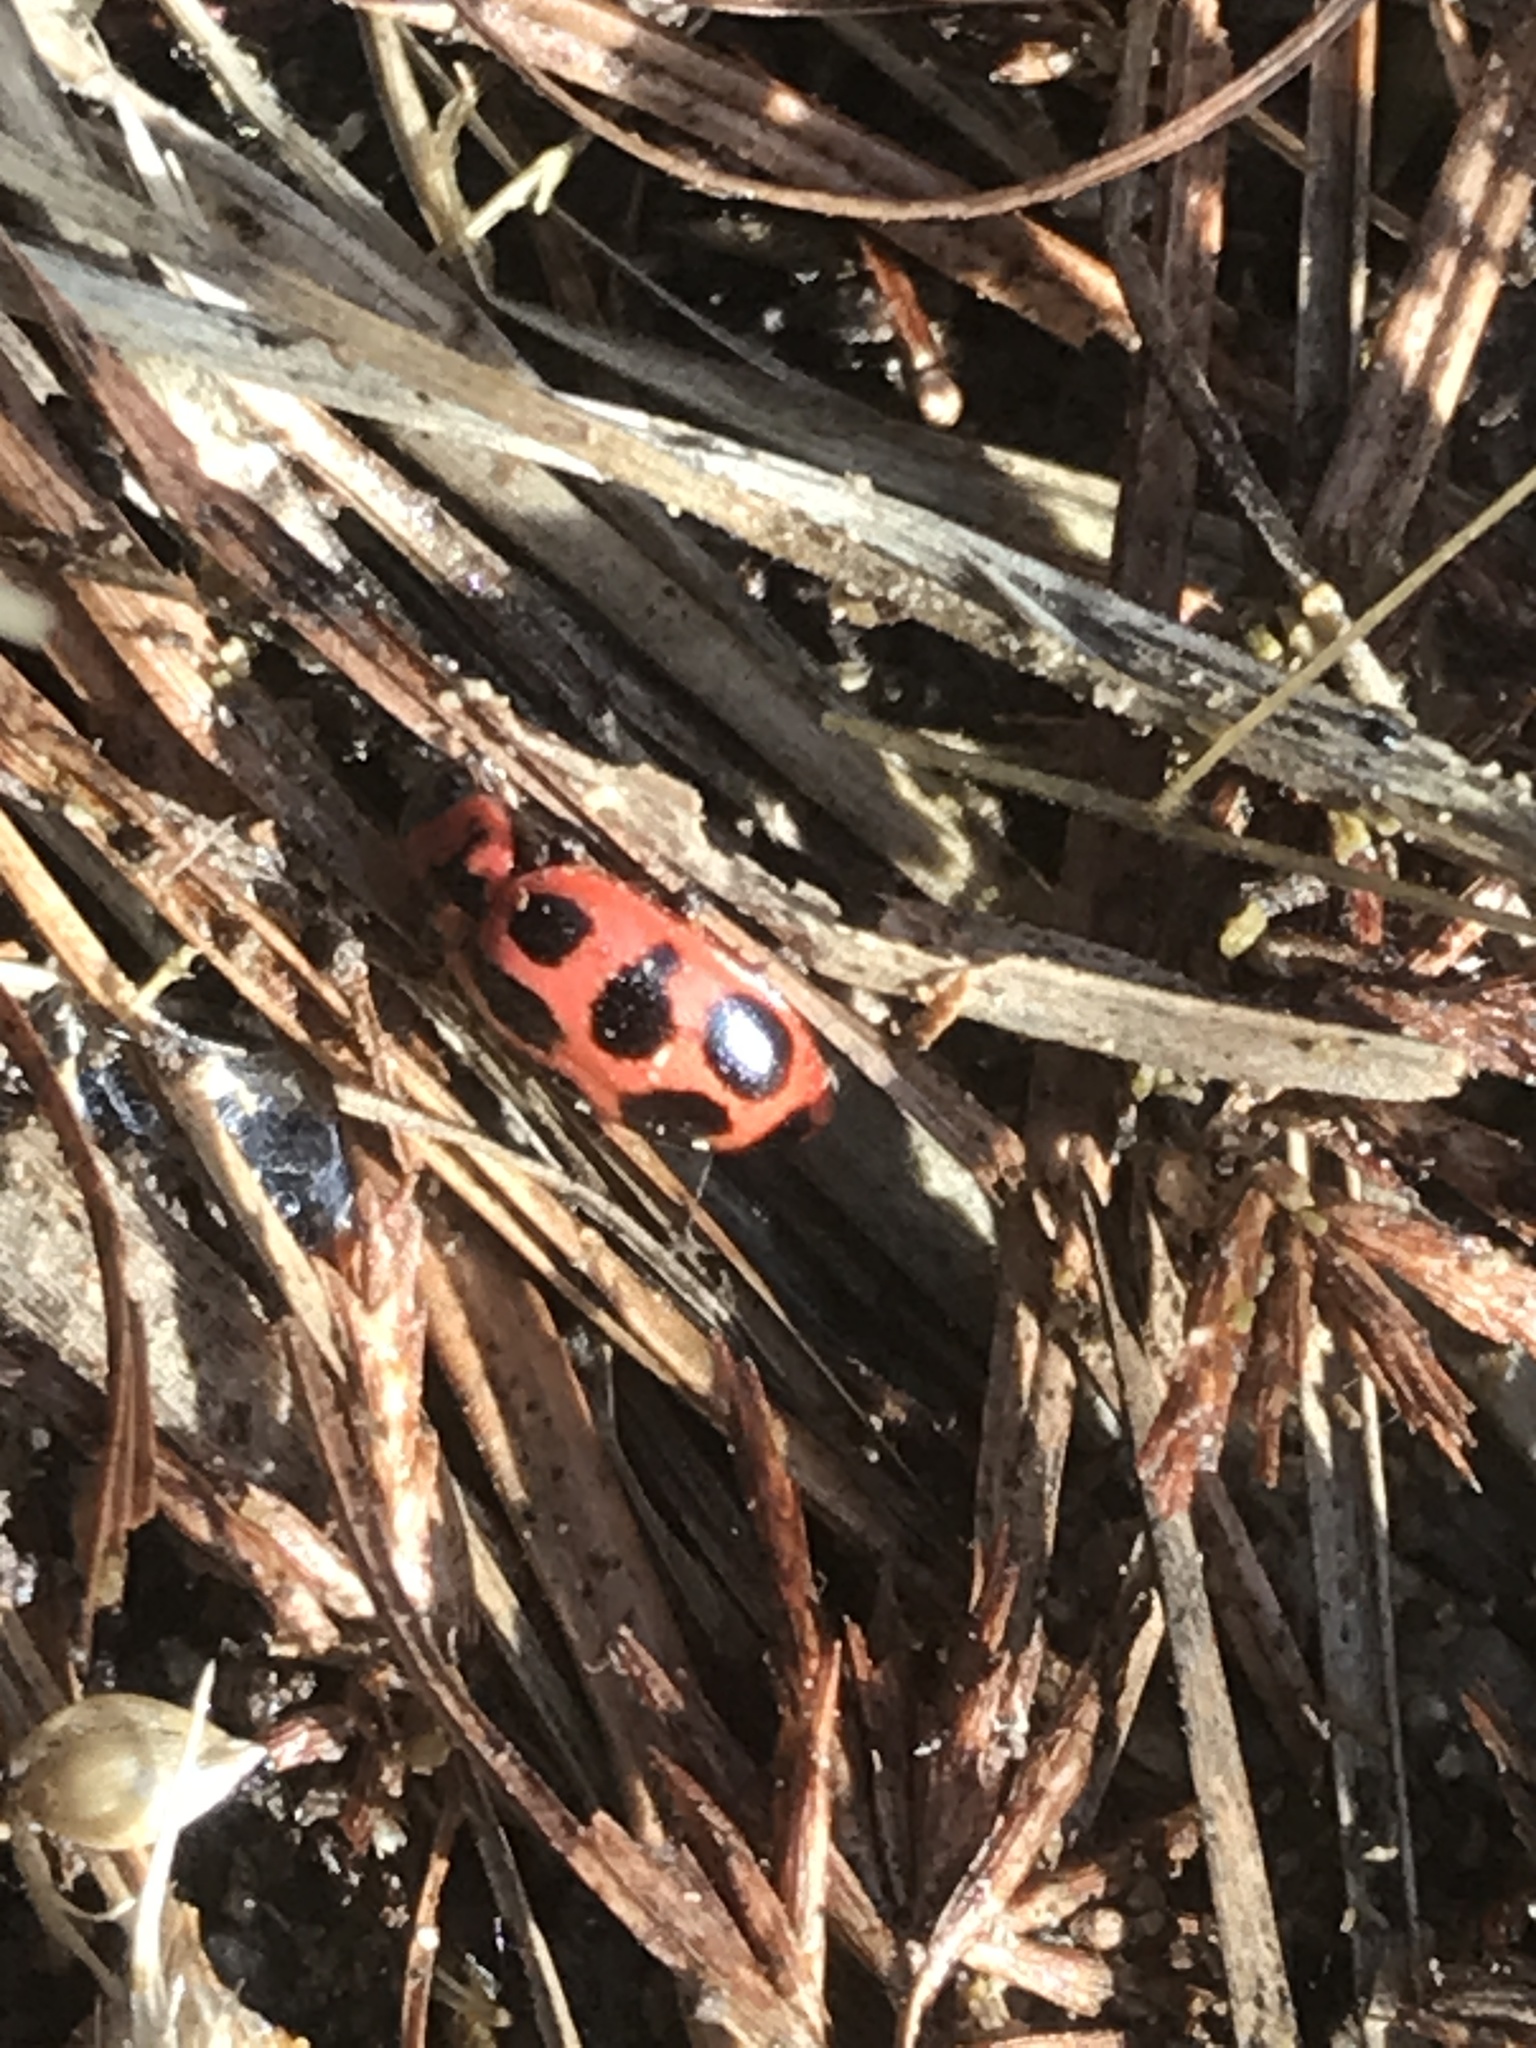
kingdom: Animalia
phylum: Arthropoda
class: Insecta
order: Coleoptera
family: Coccinellidae
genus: Coleomegilla
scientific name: Coleomegilla maculata
